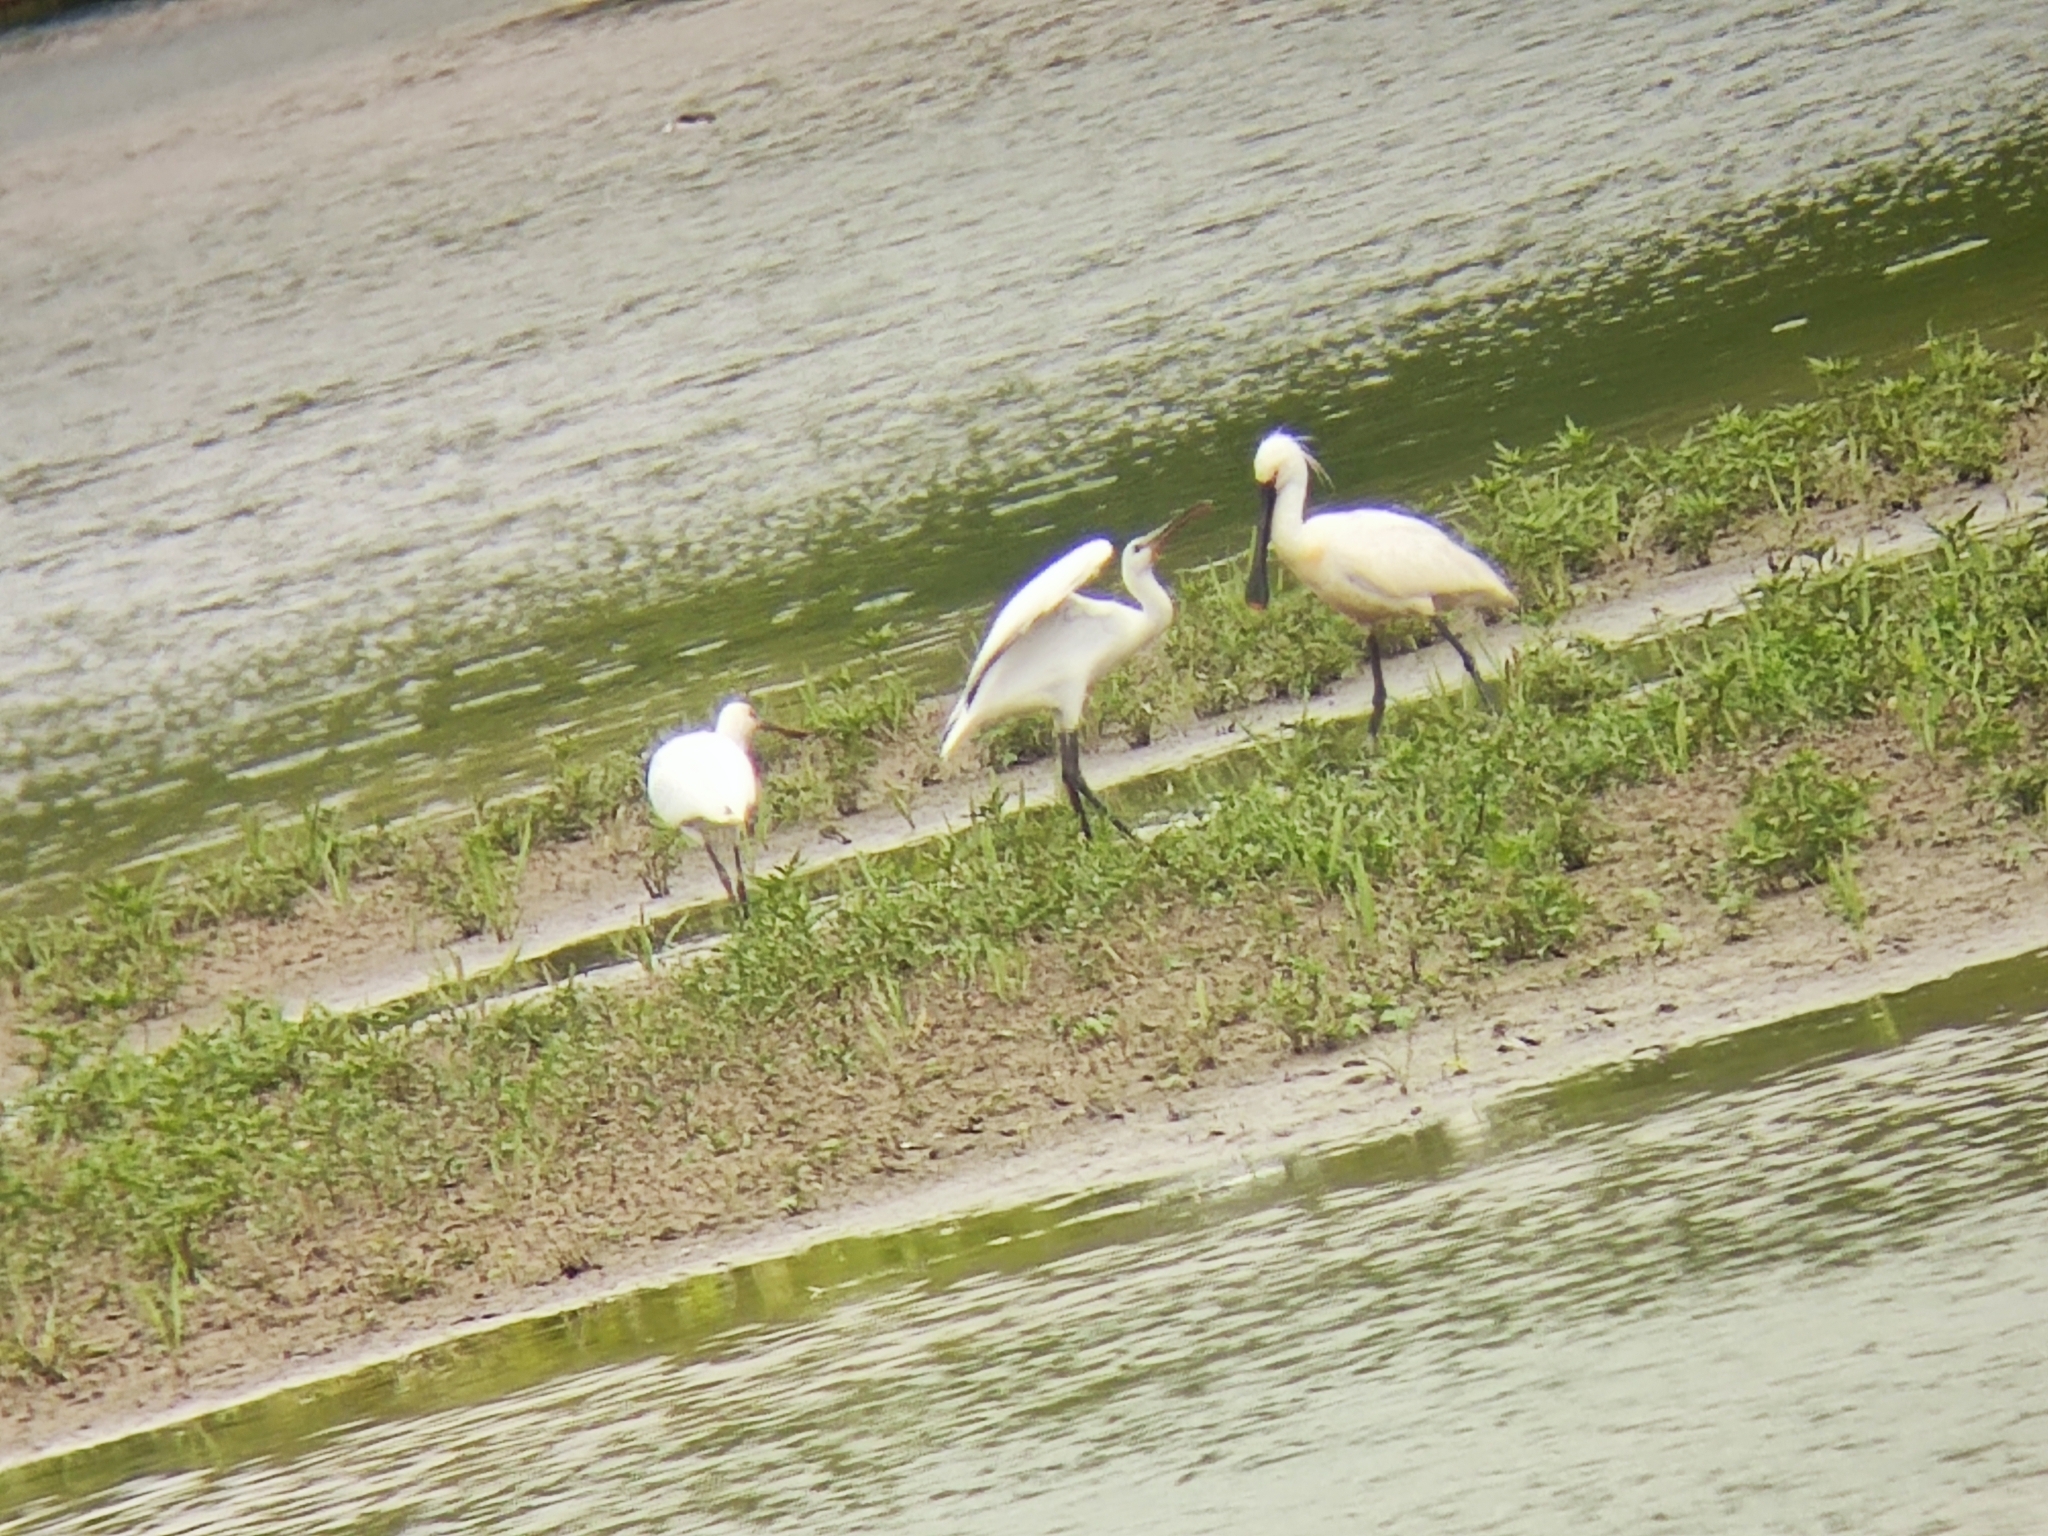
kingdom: Animalia
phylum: Chordata
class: Aves
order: Pelecaniformes
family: Threskiornithidae
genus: Platalea
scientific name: Platalea leucorodia
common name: Eurasian spoonbill
